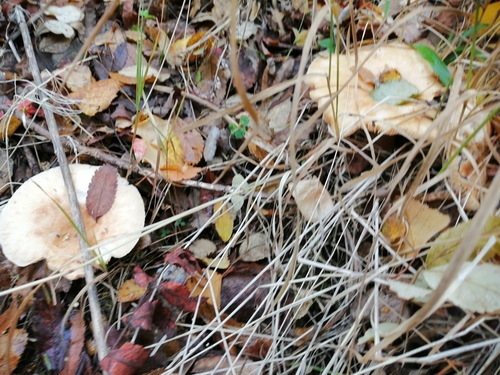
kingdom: Fungi
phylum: Basidiomycota
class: Agaricomycetes
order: Russulales
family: Russulaceae
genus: Lactarius
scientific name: Lactarius torminosus
